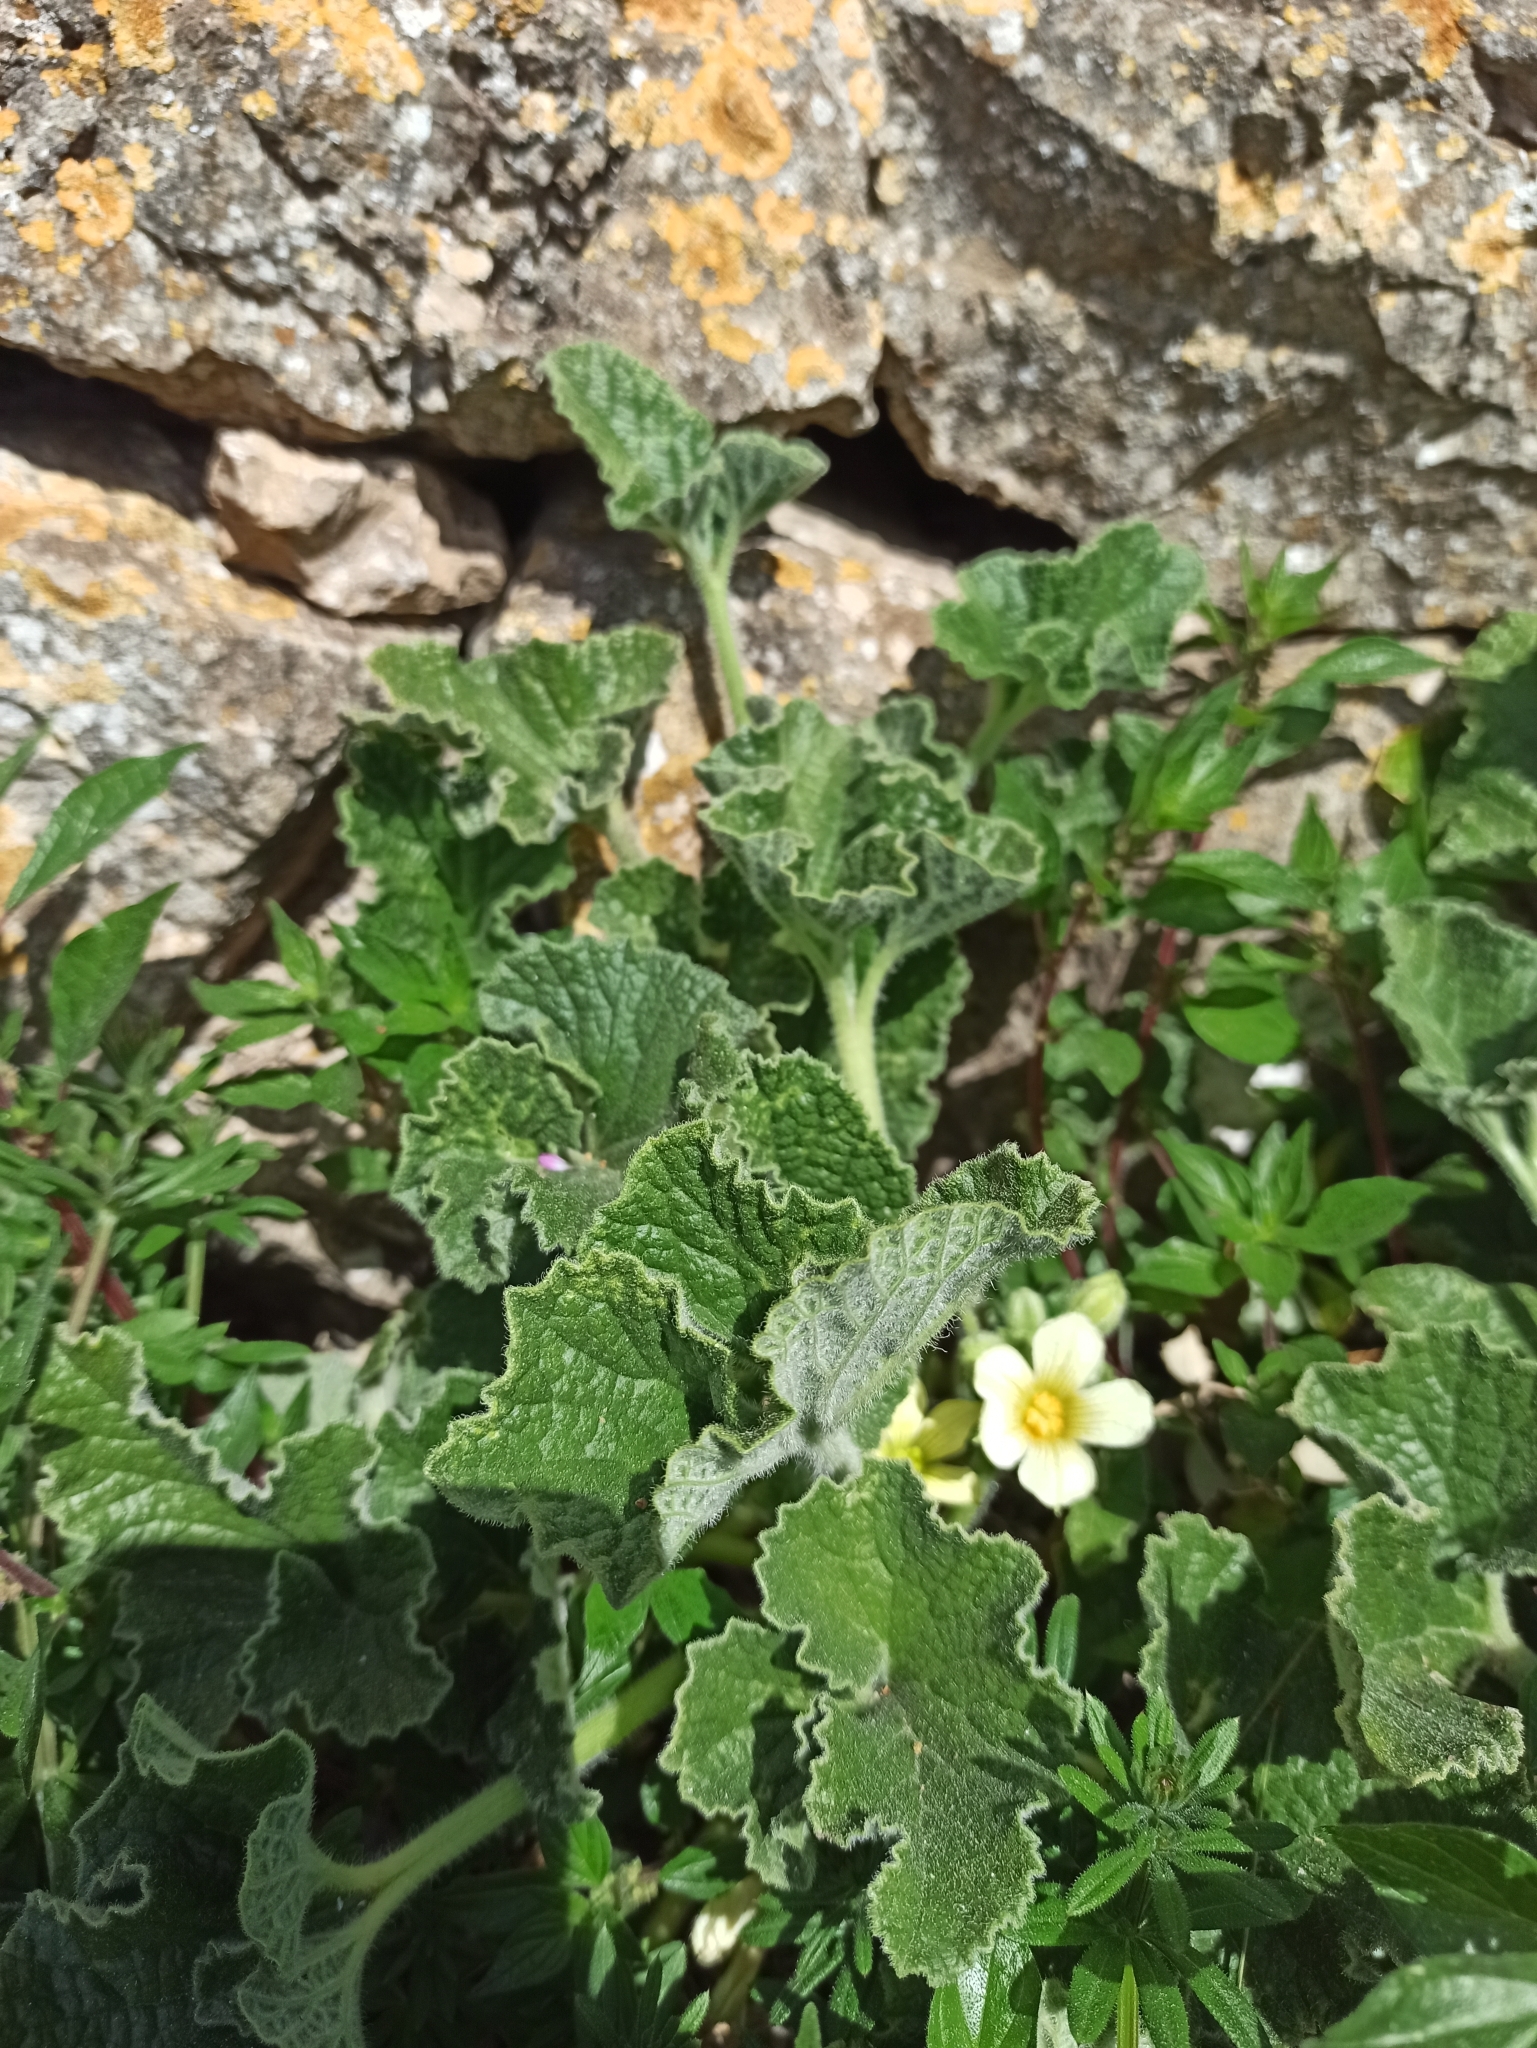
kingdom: Plantae
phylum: Tracheophyta
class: Magnoliopsida
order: Cucurbitales
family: Cucurbitaceae
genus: Ecballium
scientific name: Ecballium elaterium
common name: Squirting cucumber
